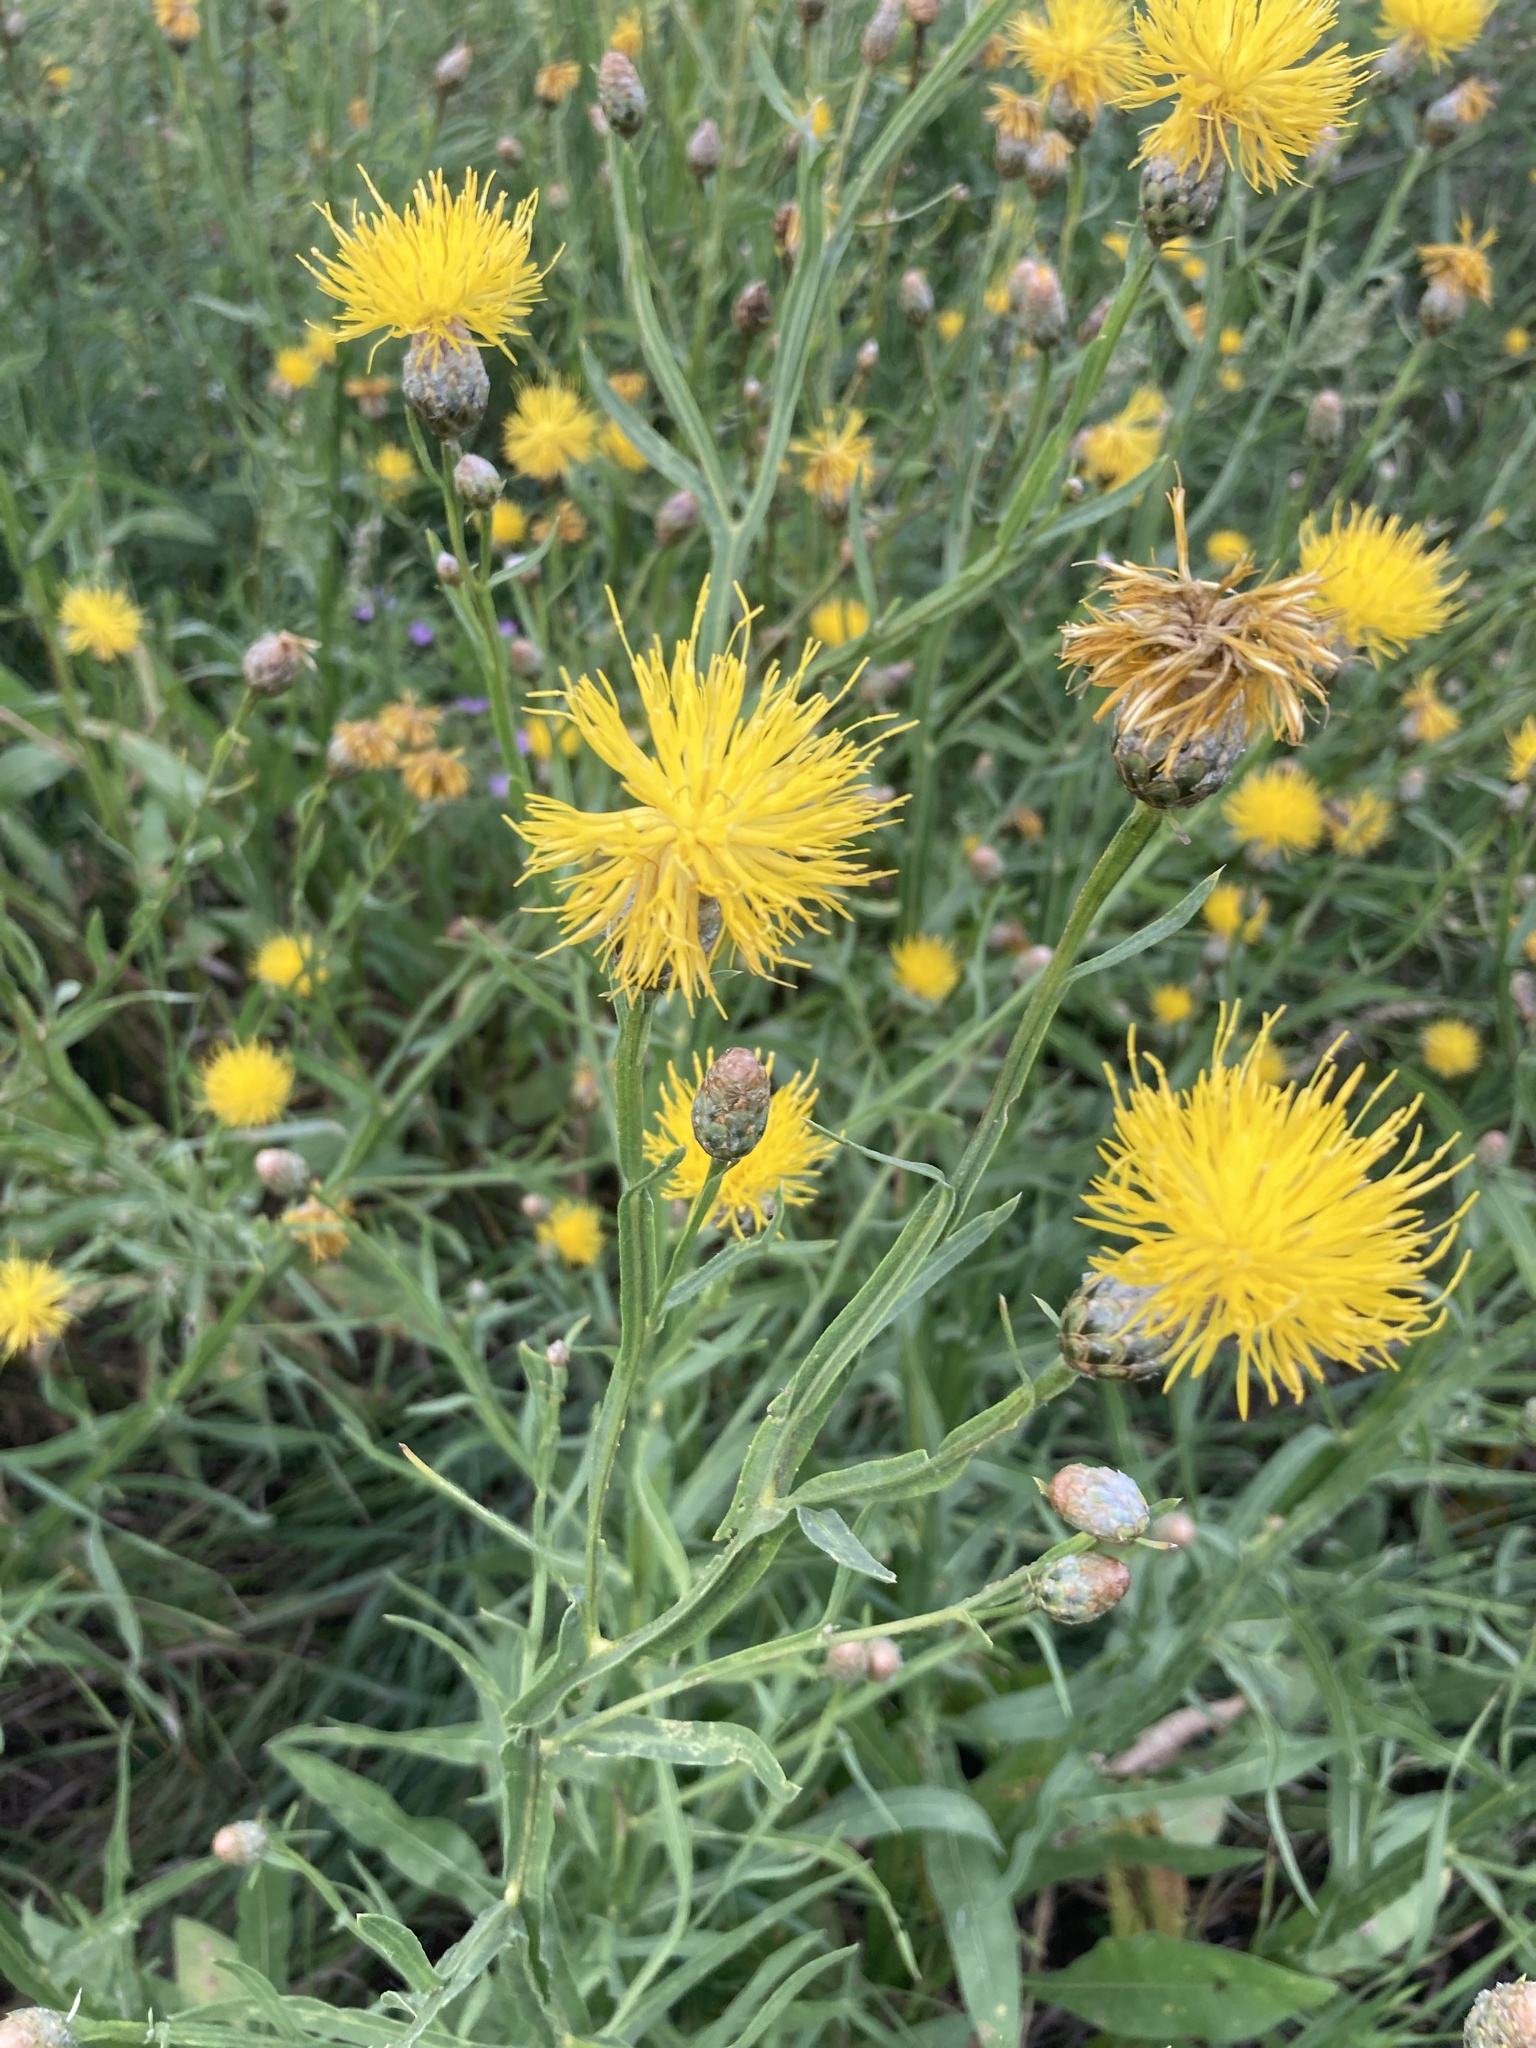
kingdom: Plantae
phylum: Tracheophyta
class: Magnoliopsida
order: Asterales
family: Asteraceae
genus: Centaurea
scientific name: Centaurea glastifolia
